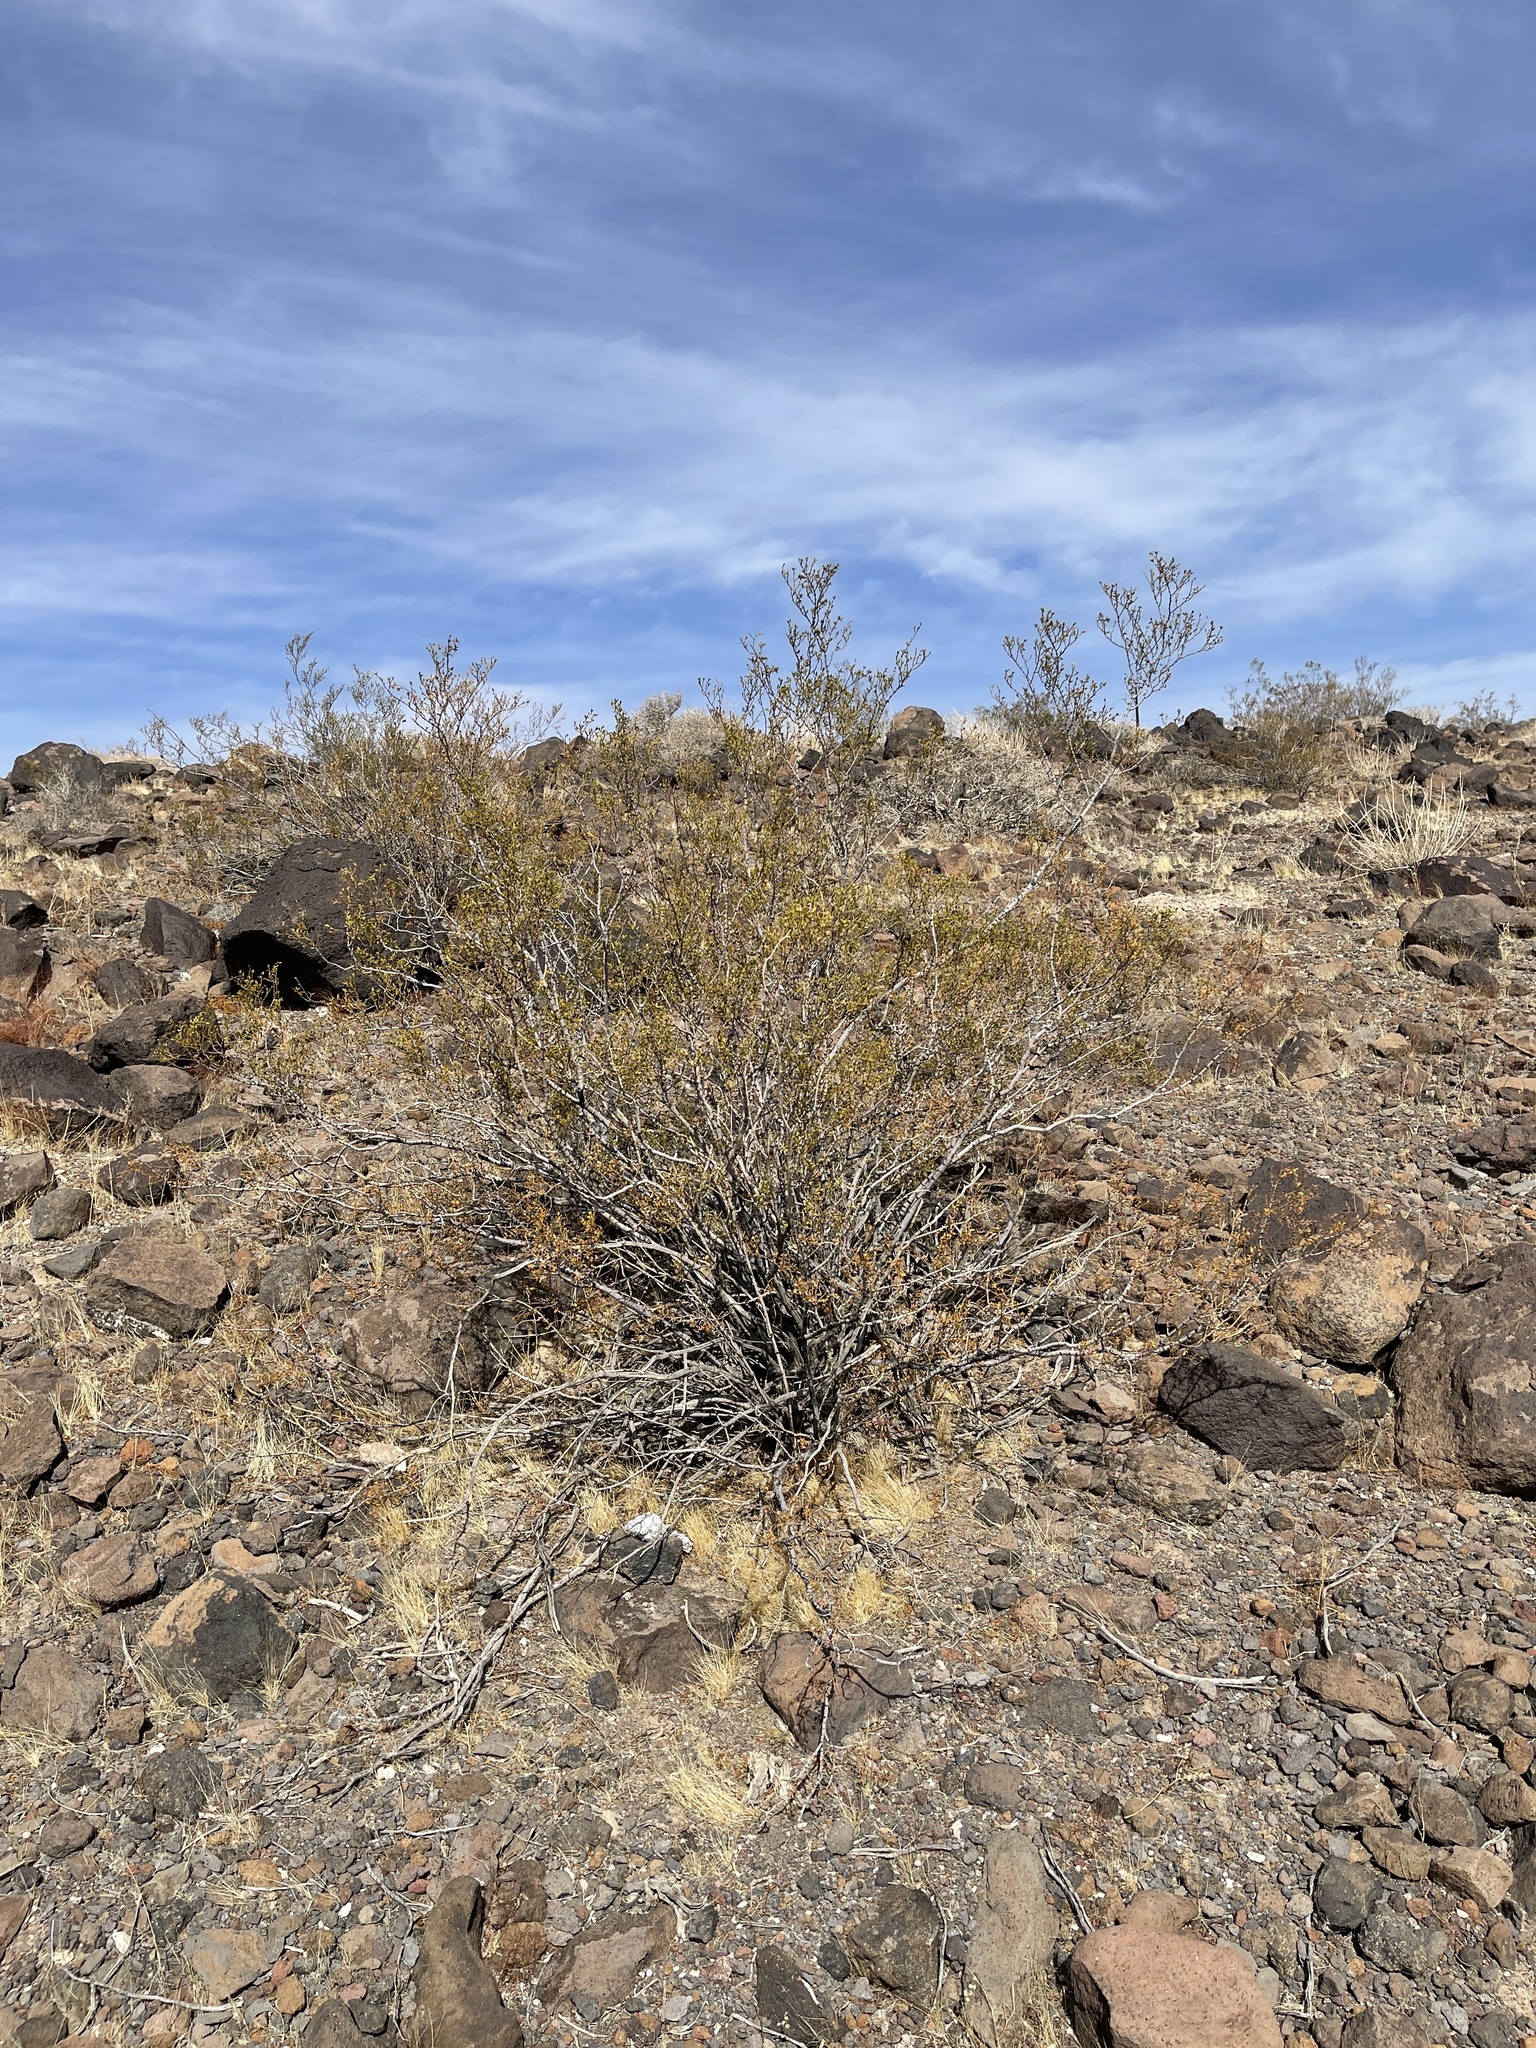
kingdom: Plantae
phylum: Tracheophyta
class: Magnoliopsida
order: Zygophyllales
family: Zygophyllaceae
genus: Larrea
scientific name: Larrea tridentata
